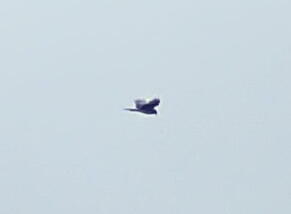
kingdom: Animalia
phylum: Chordata
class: Aves
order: Accipitriformes
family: Accipitridae
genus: Circus
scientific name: Circus approximans
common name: Swamp harrier
